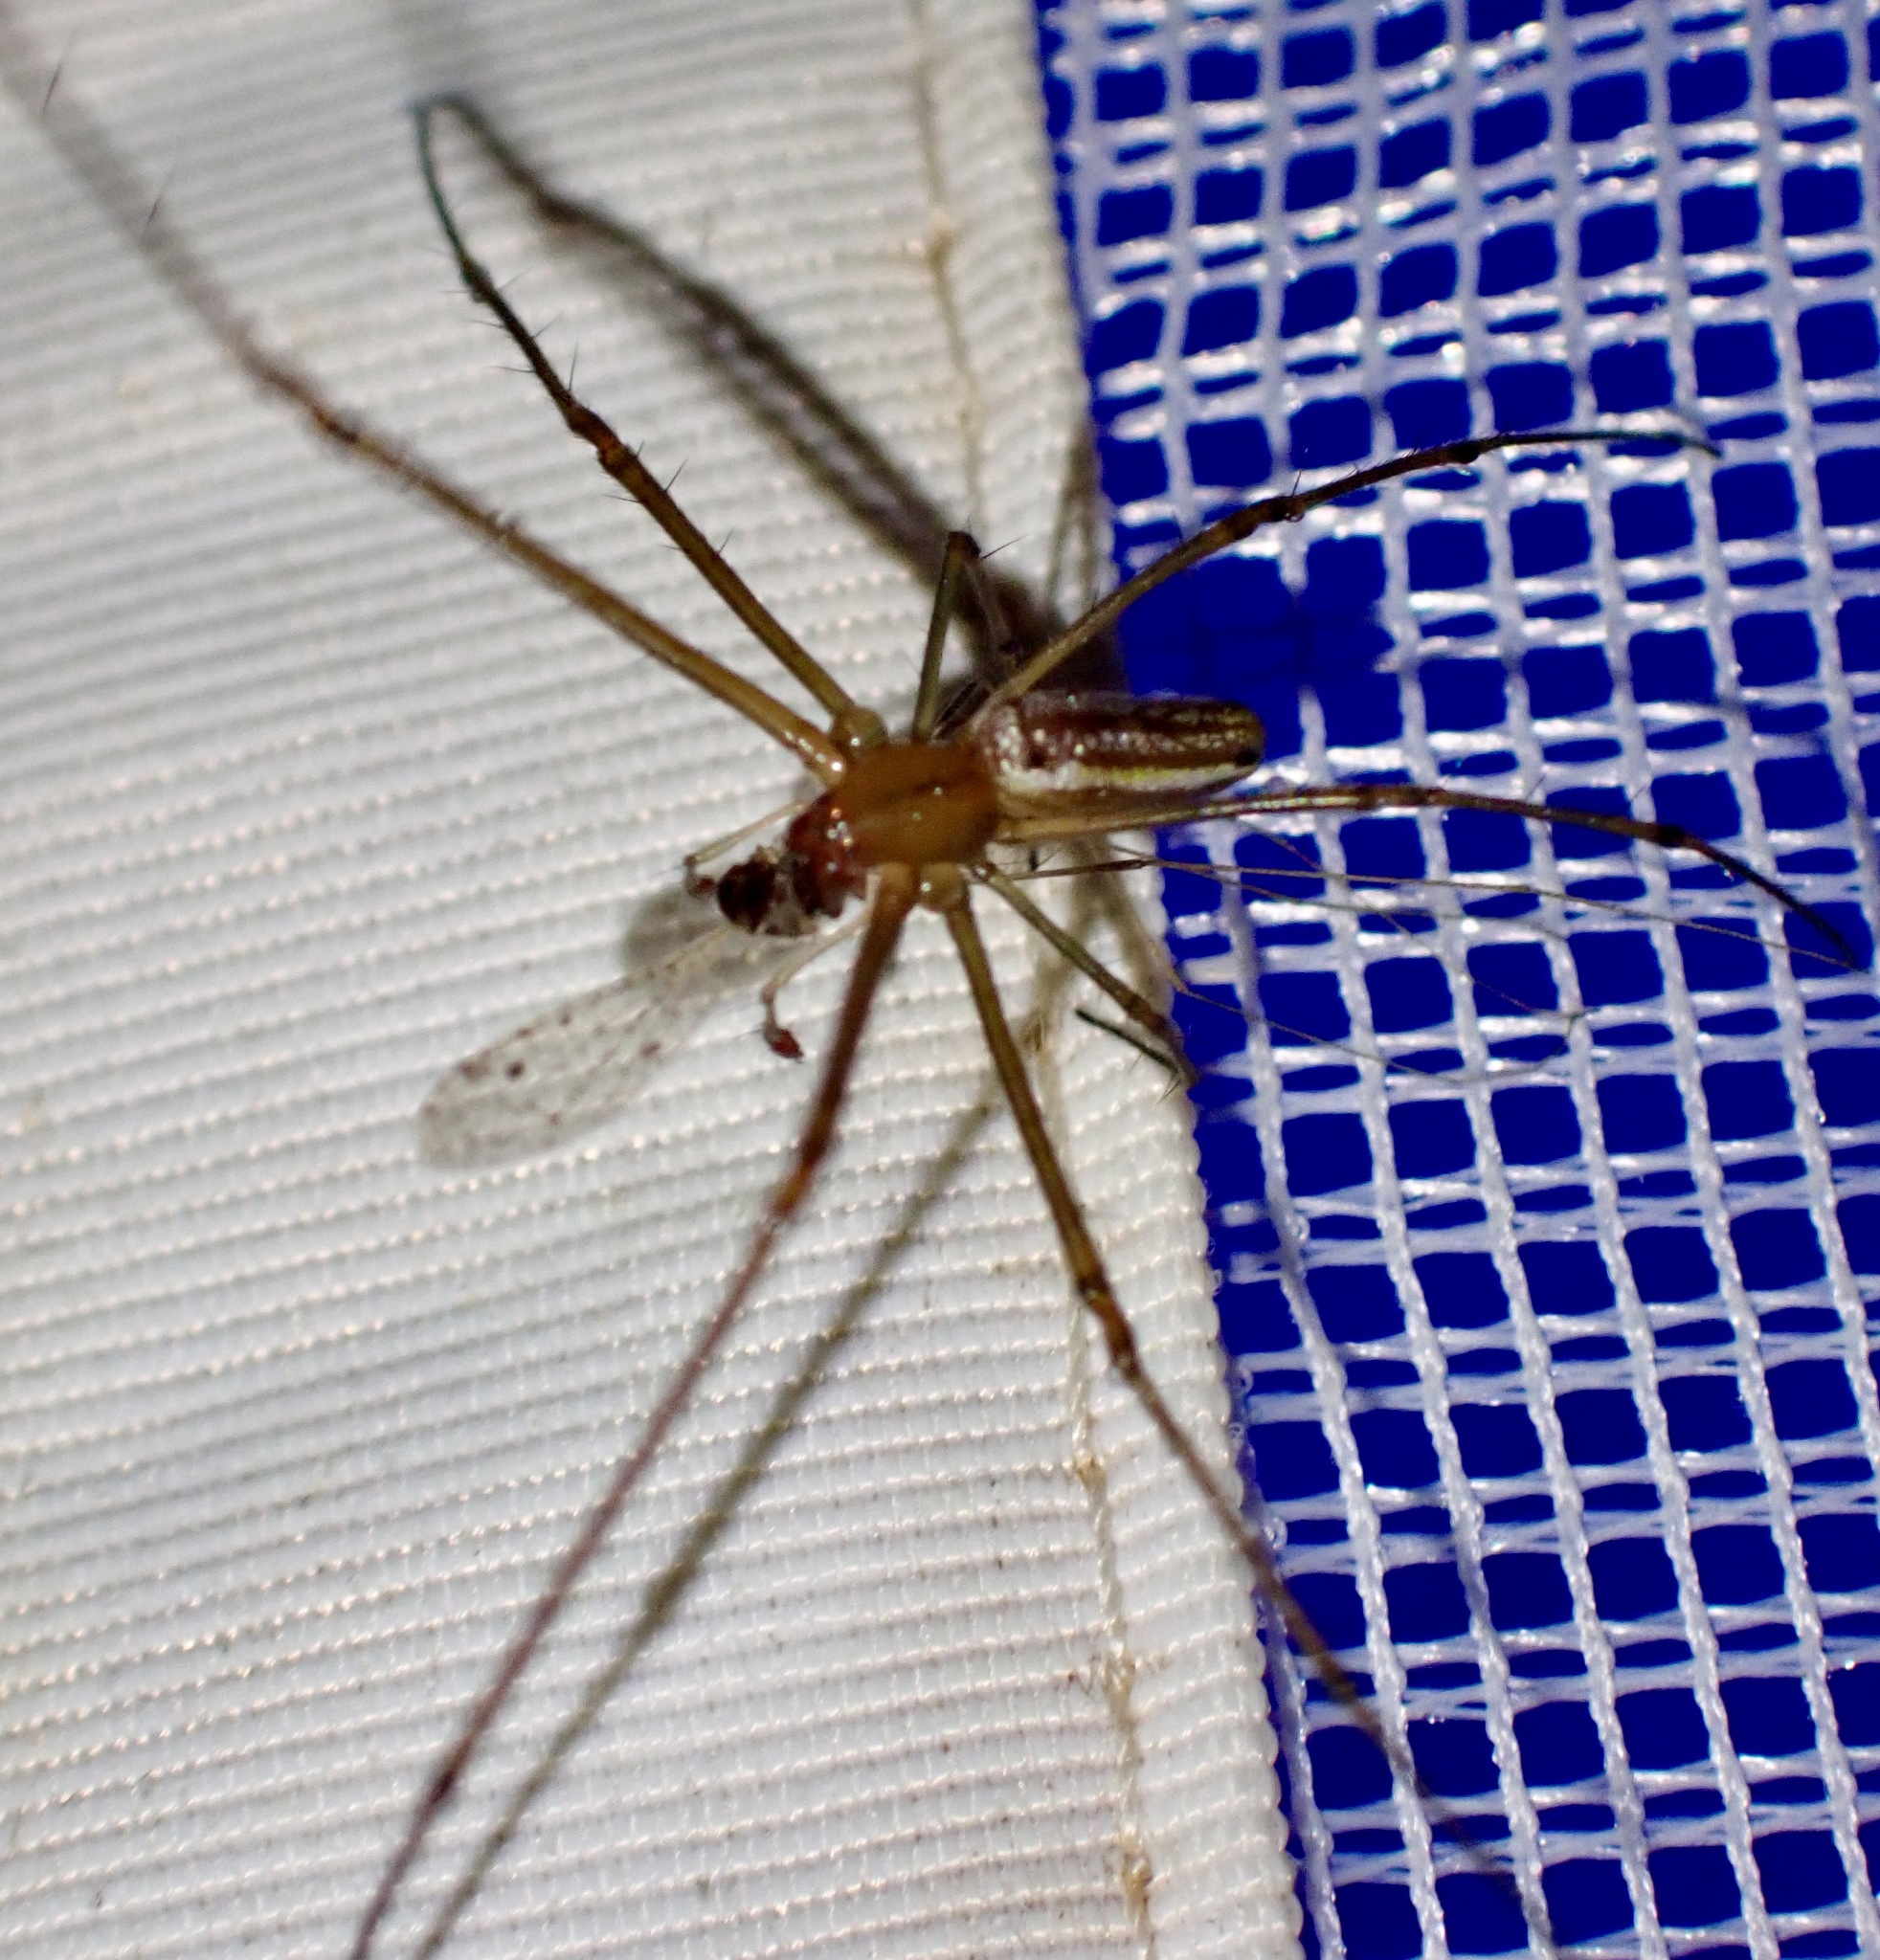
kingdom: Animalia
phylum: Arthropoda
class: Arachnida
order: Araneae
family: Tetragnathidae
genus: Leucauge
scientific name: Leucauge decorata
